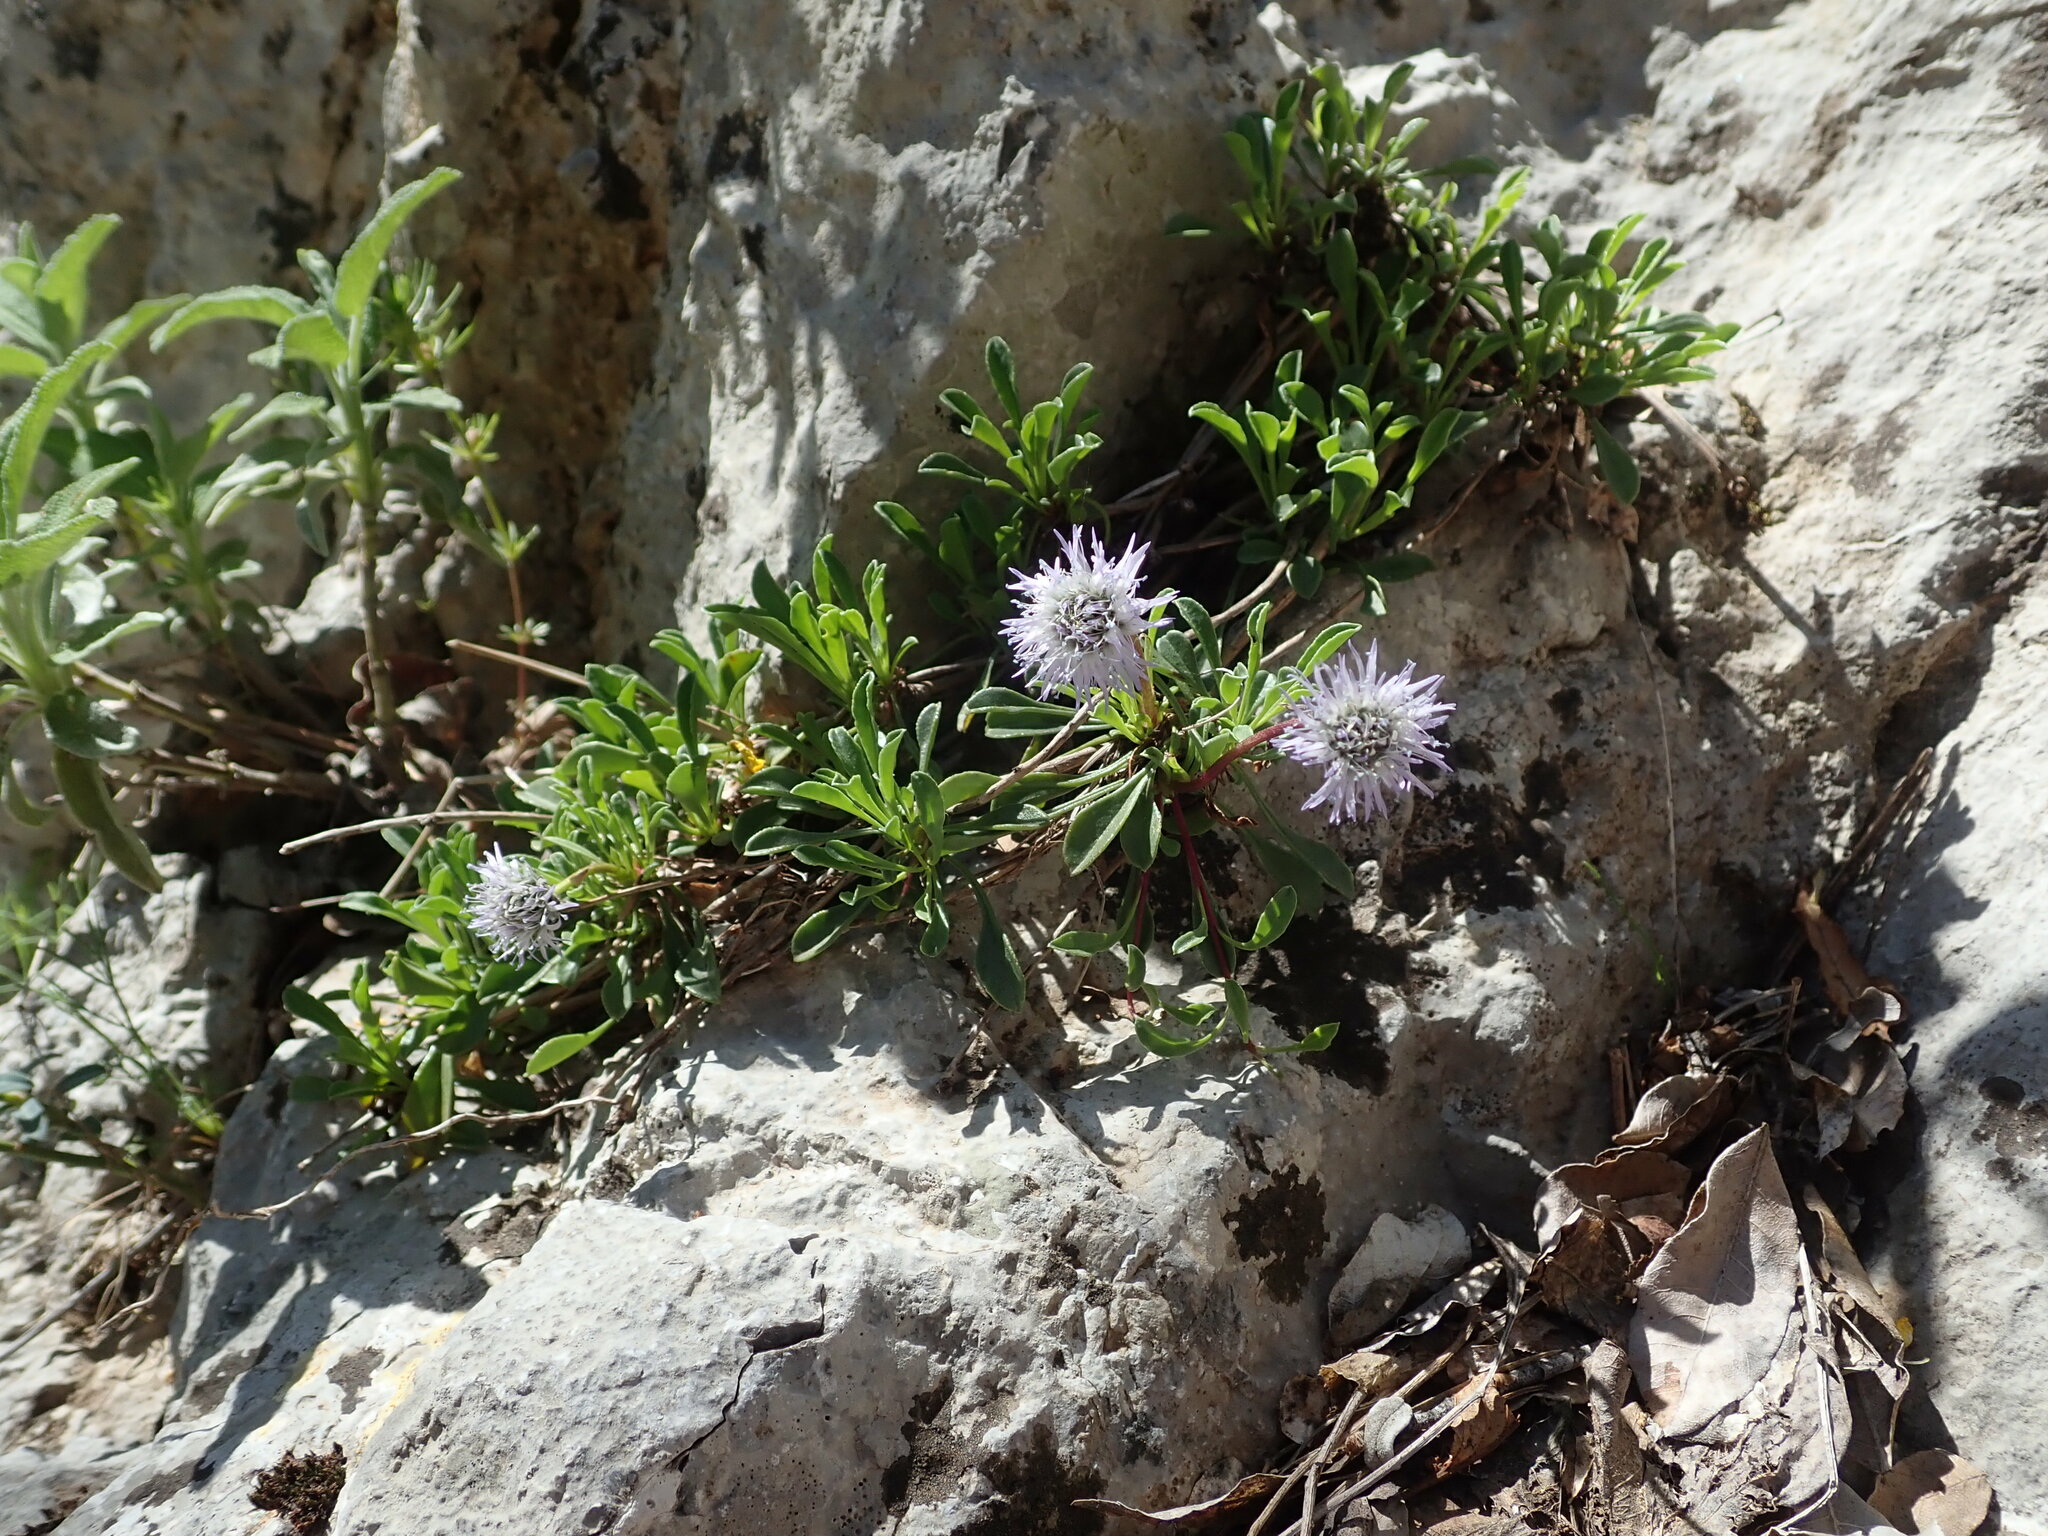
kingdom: Plantae
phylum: Tracheophyta
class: Magnoliopsida
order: Lamiales
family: Plantaginaceae
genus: Globularia
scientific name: Globularia cordifolia
